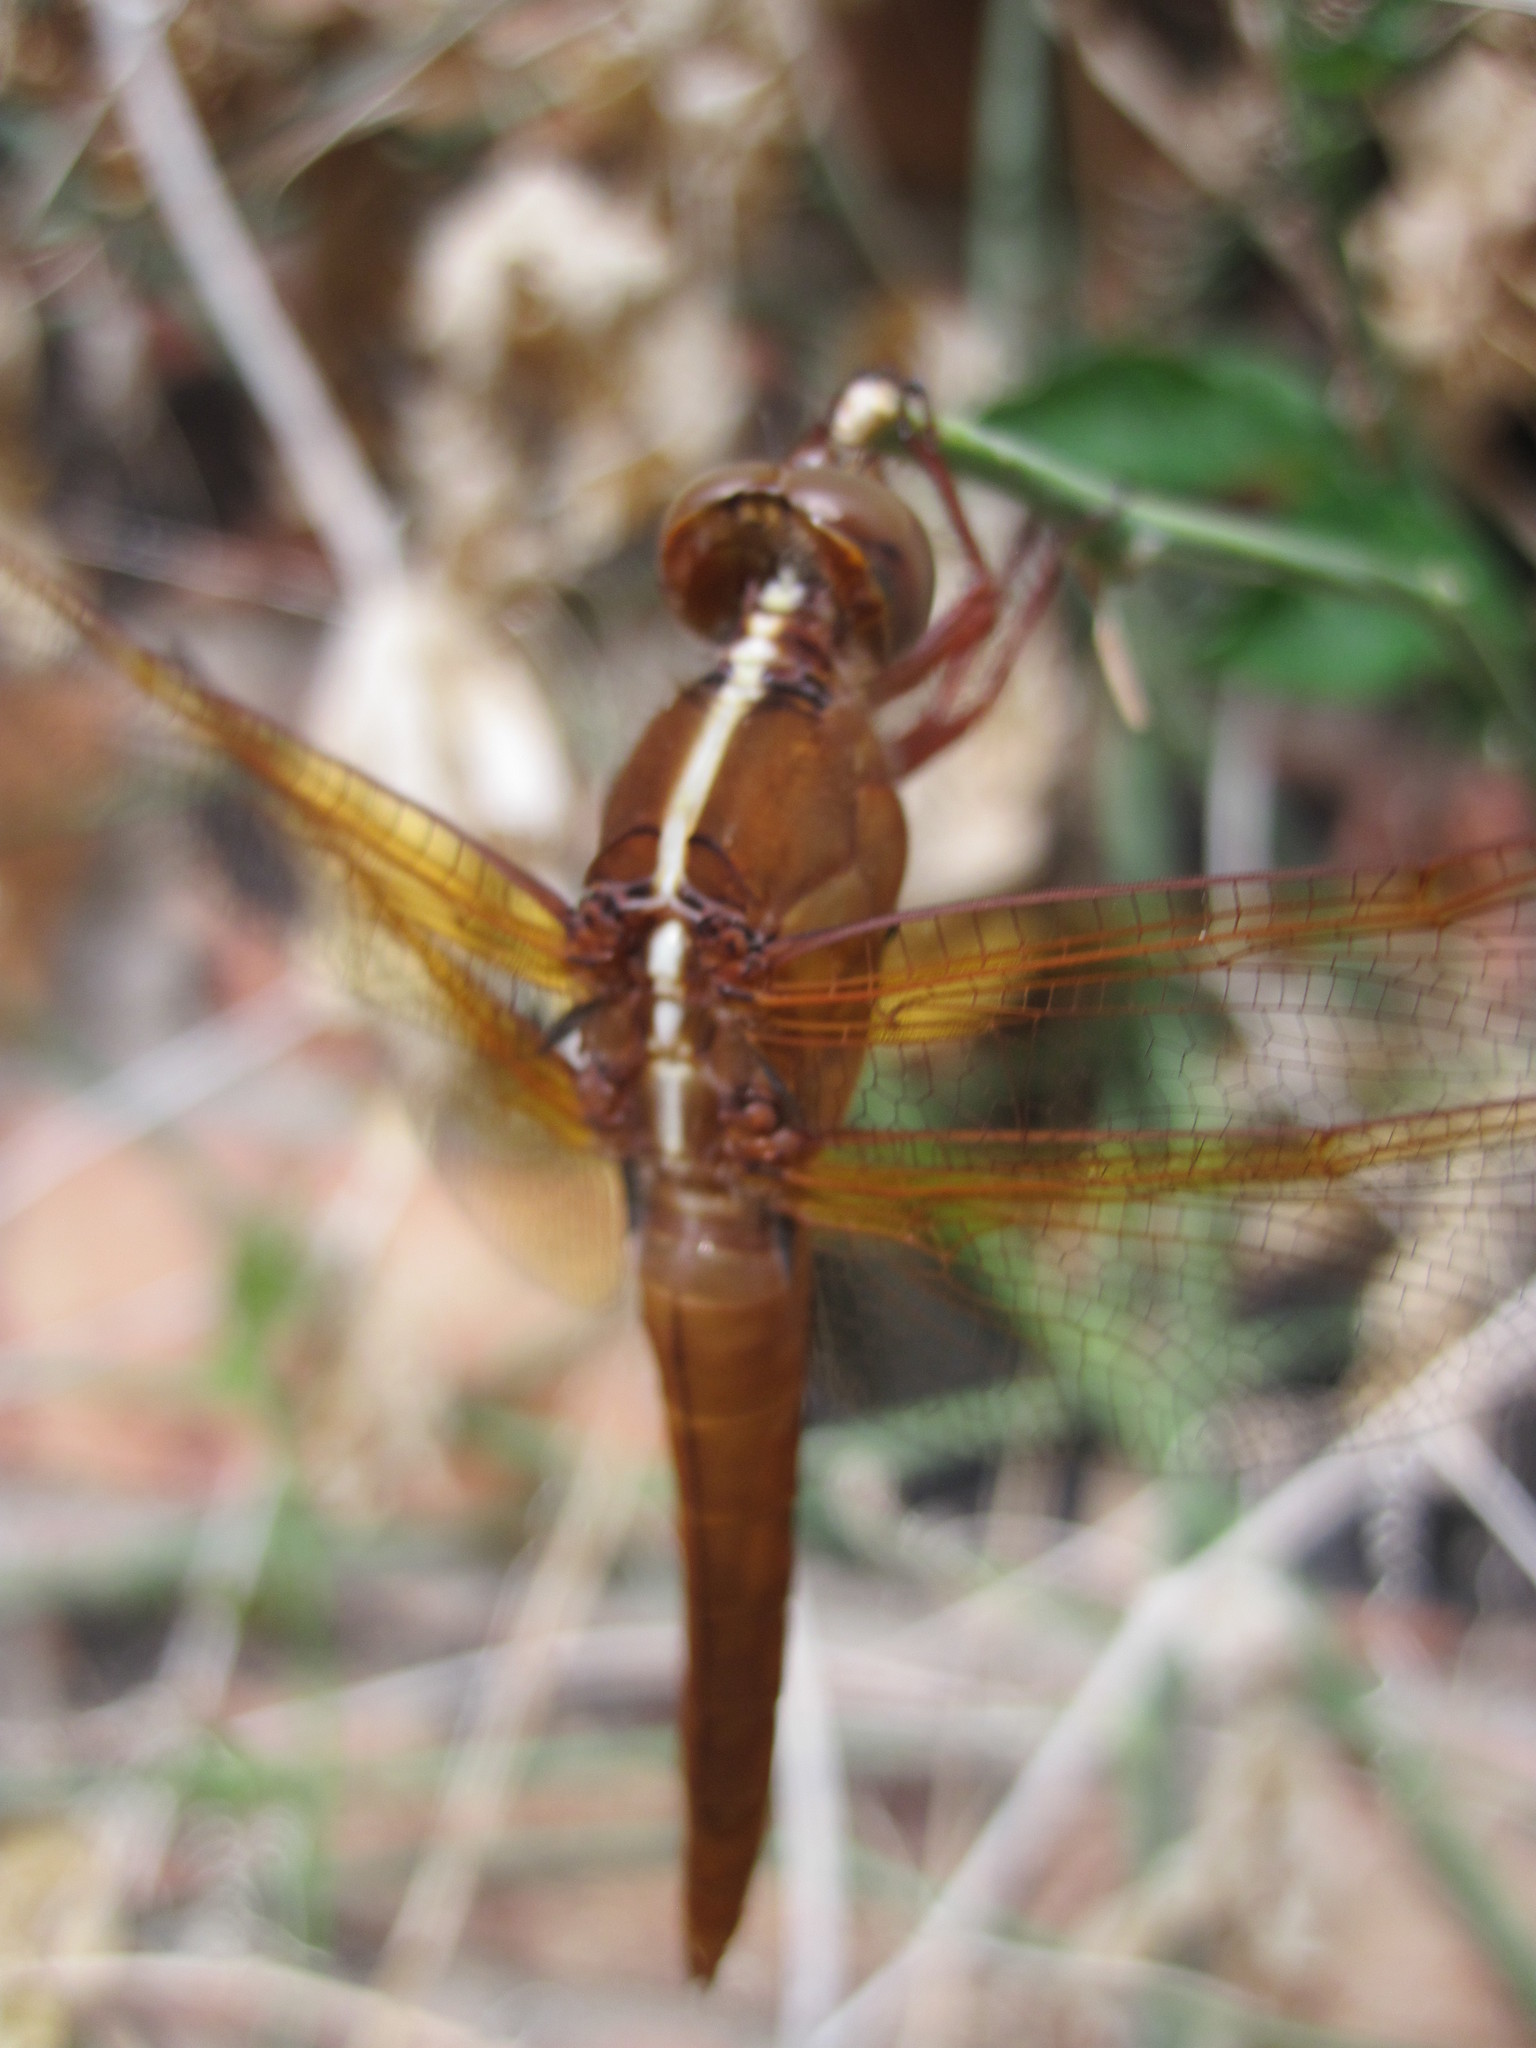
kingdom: Animalia
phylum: Arthropoda
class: Insecta
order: Odonata
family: Libellulidae
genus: Libellula
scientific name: Libellula croceipennis
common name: Neon skimmer
